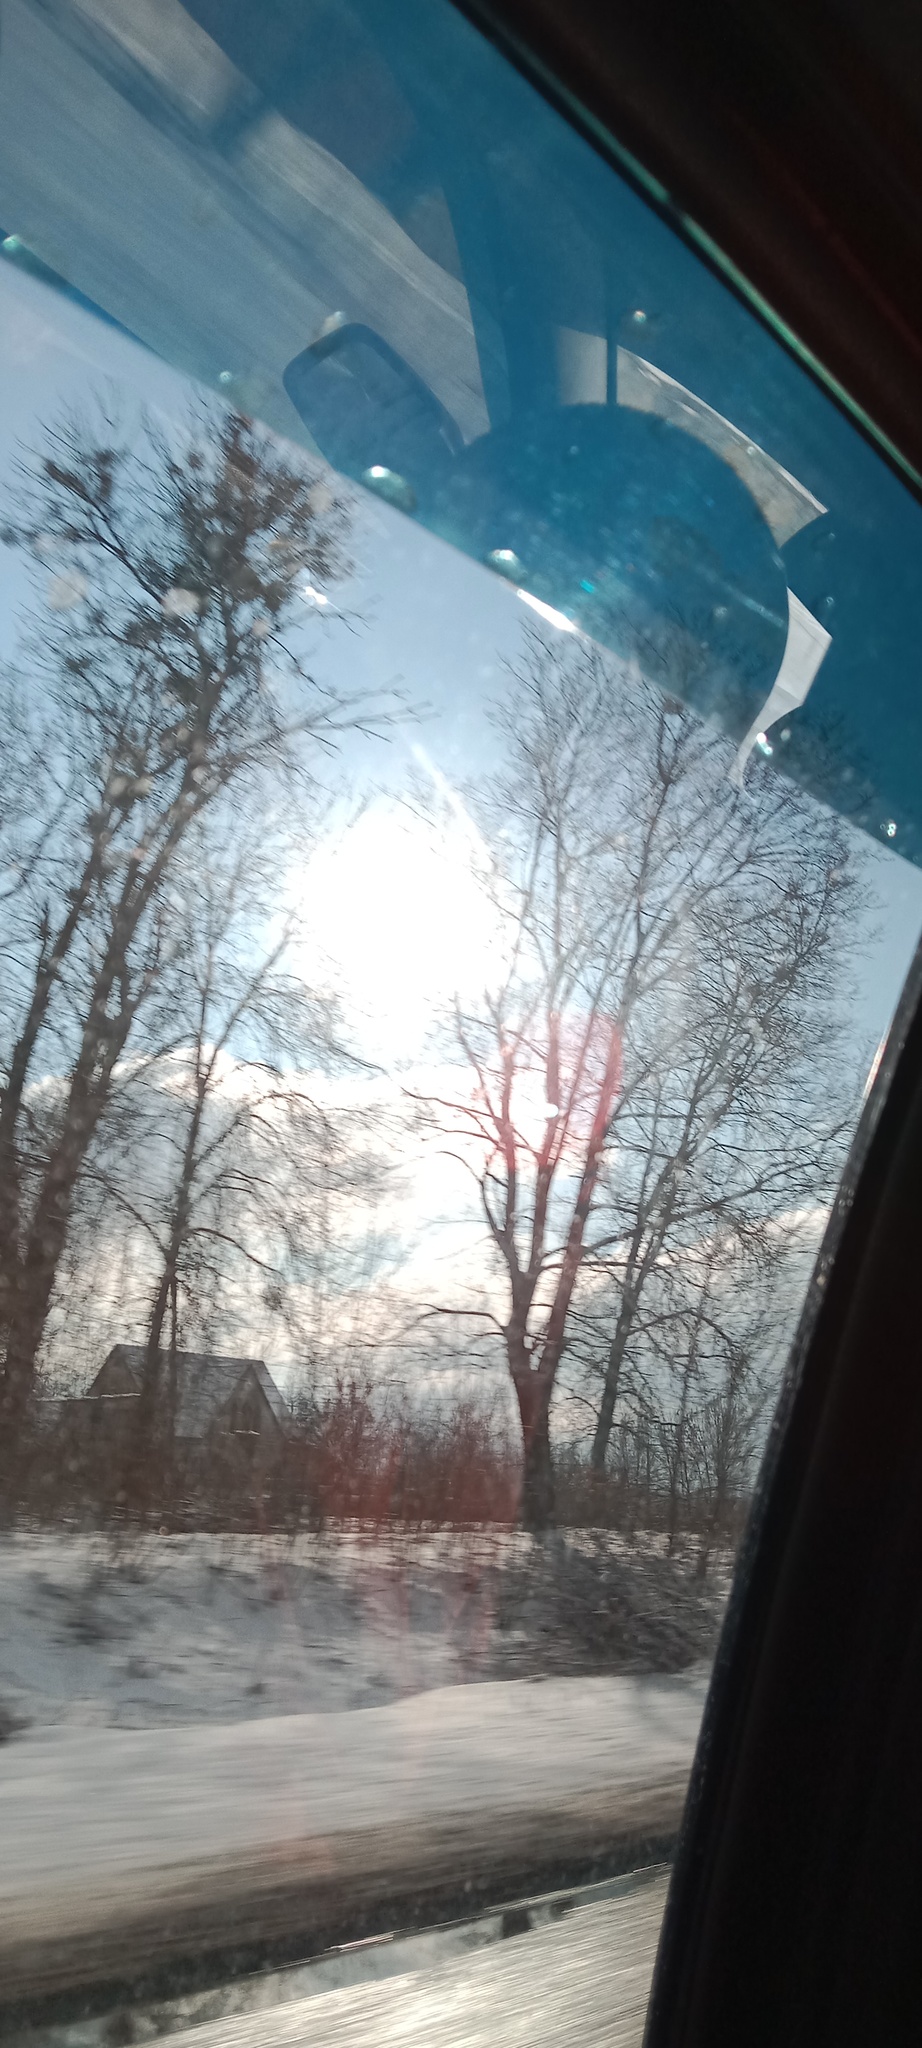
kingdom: Plantae
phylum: Tracheophyta
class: Magnoliopsida
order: Santalales
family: Viscaceae
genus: Viscum
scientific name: Viscum album
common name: Mistletoe
